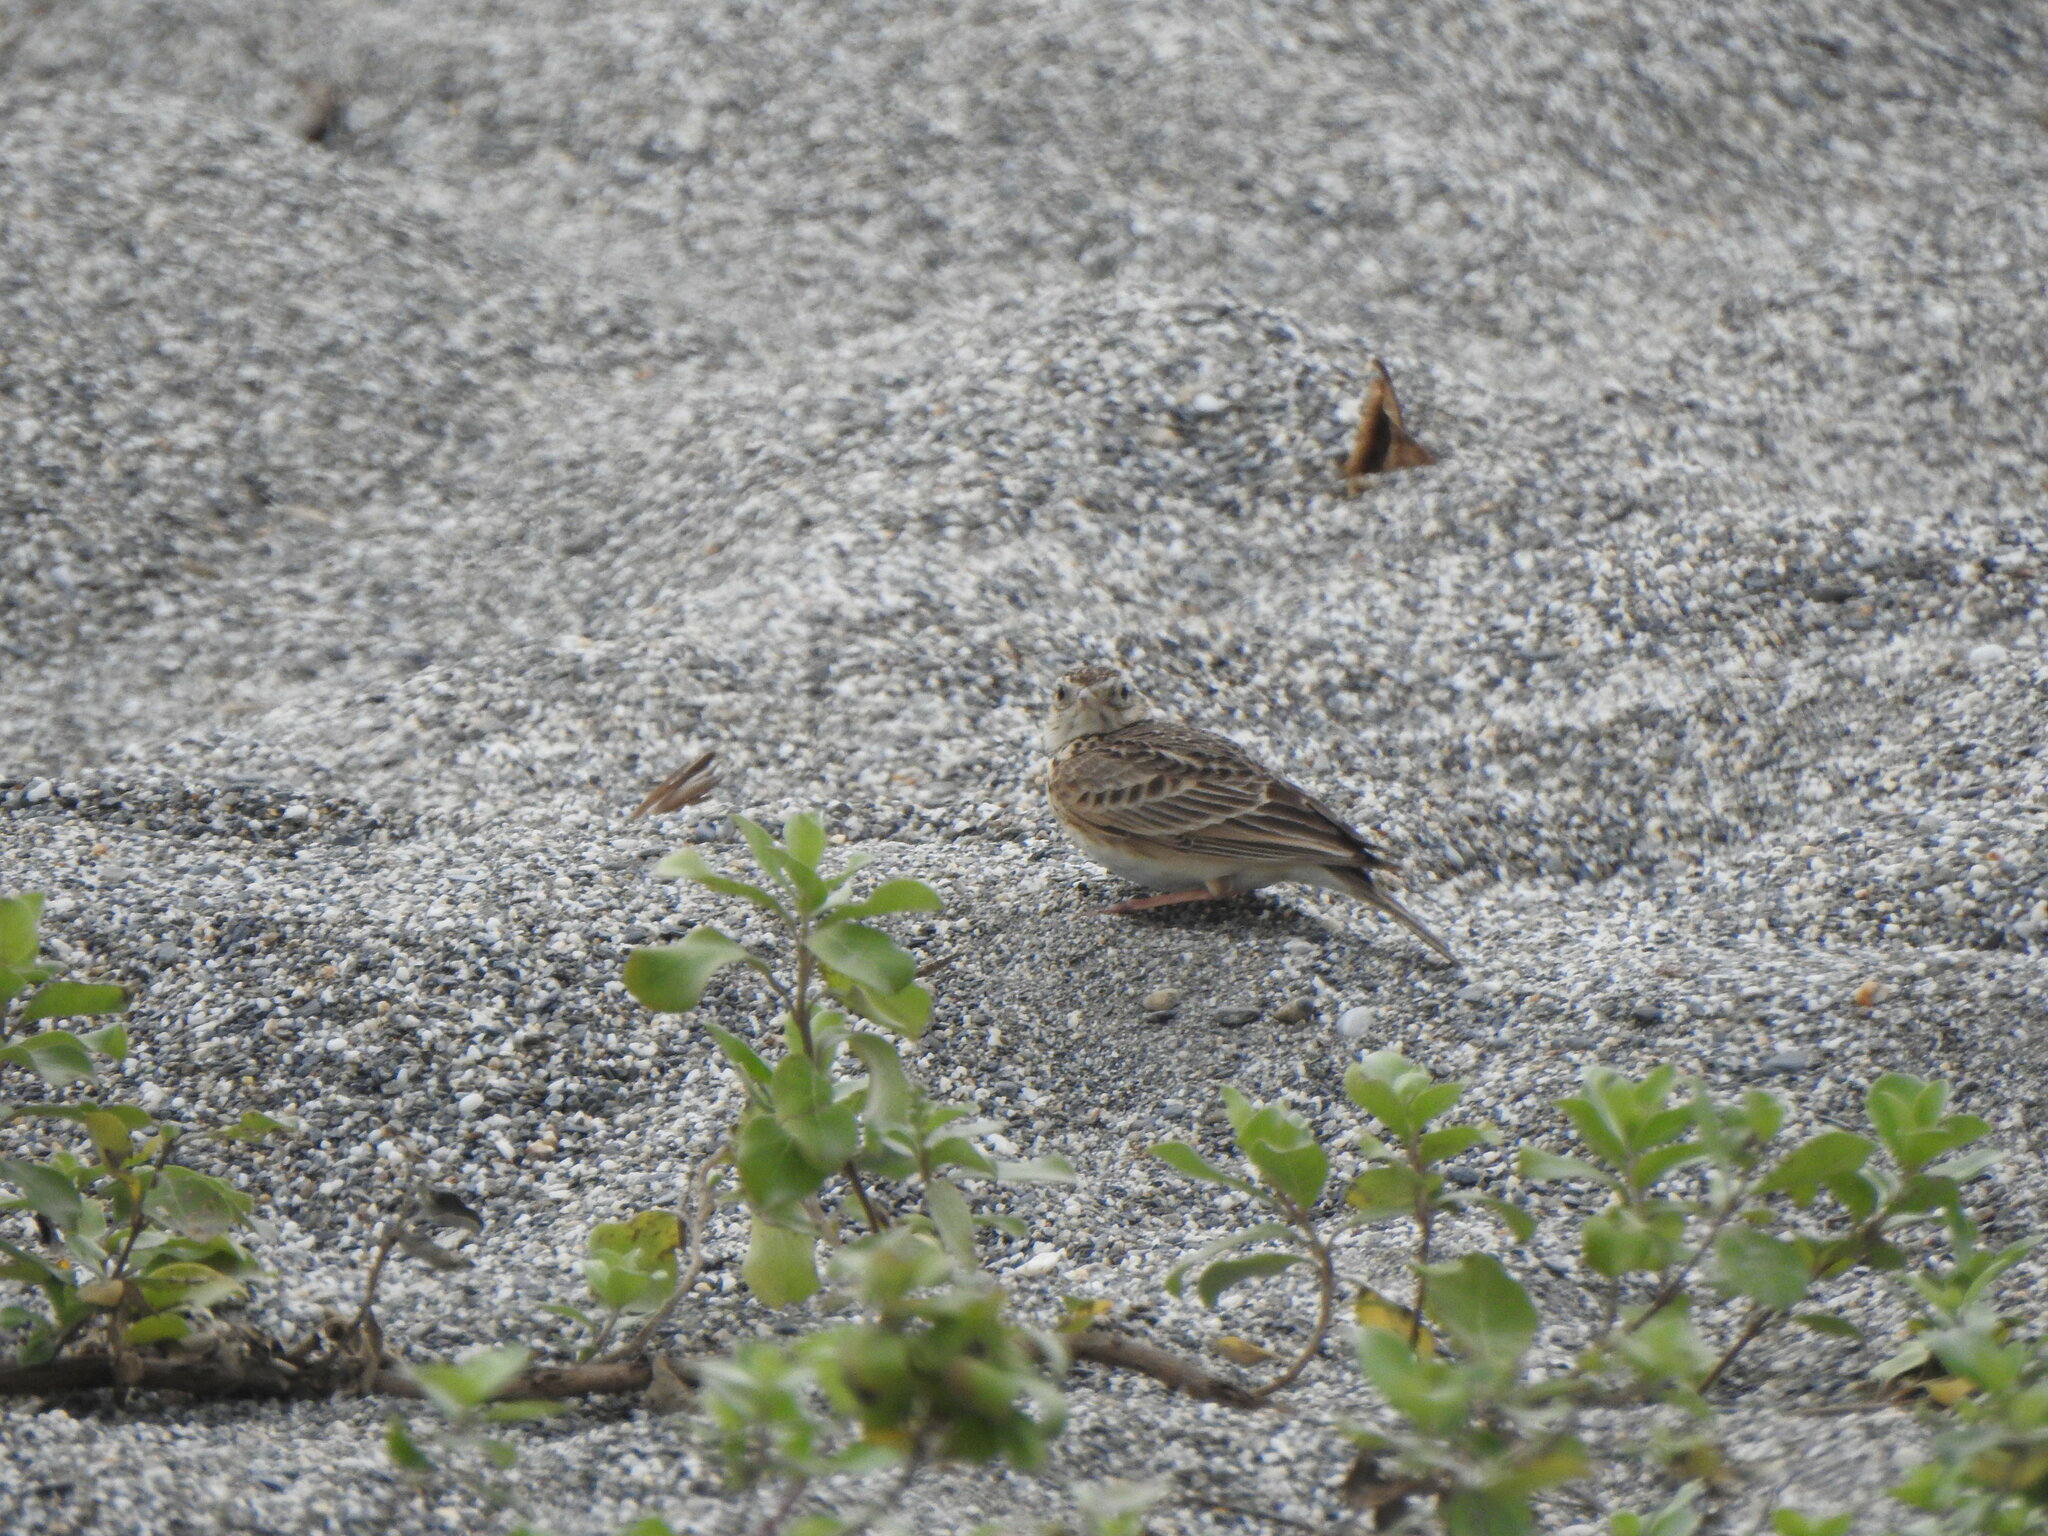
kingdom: Animalia
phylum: Chordata
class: Aves
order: Passeriformes
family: Alaudidae
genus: Alauda
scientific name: Alauda gulgula
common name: Oriental skylark
